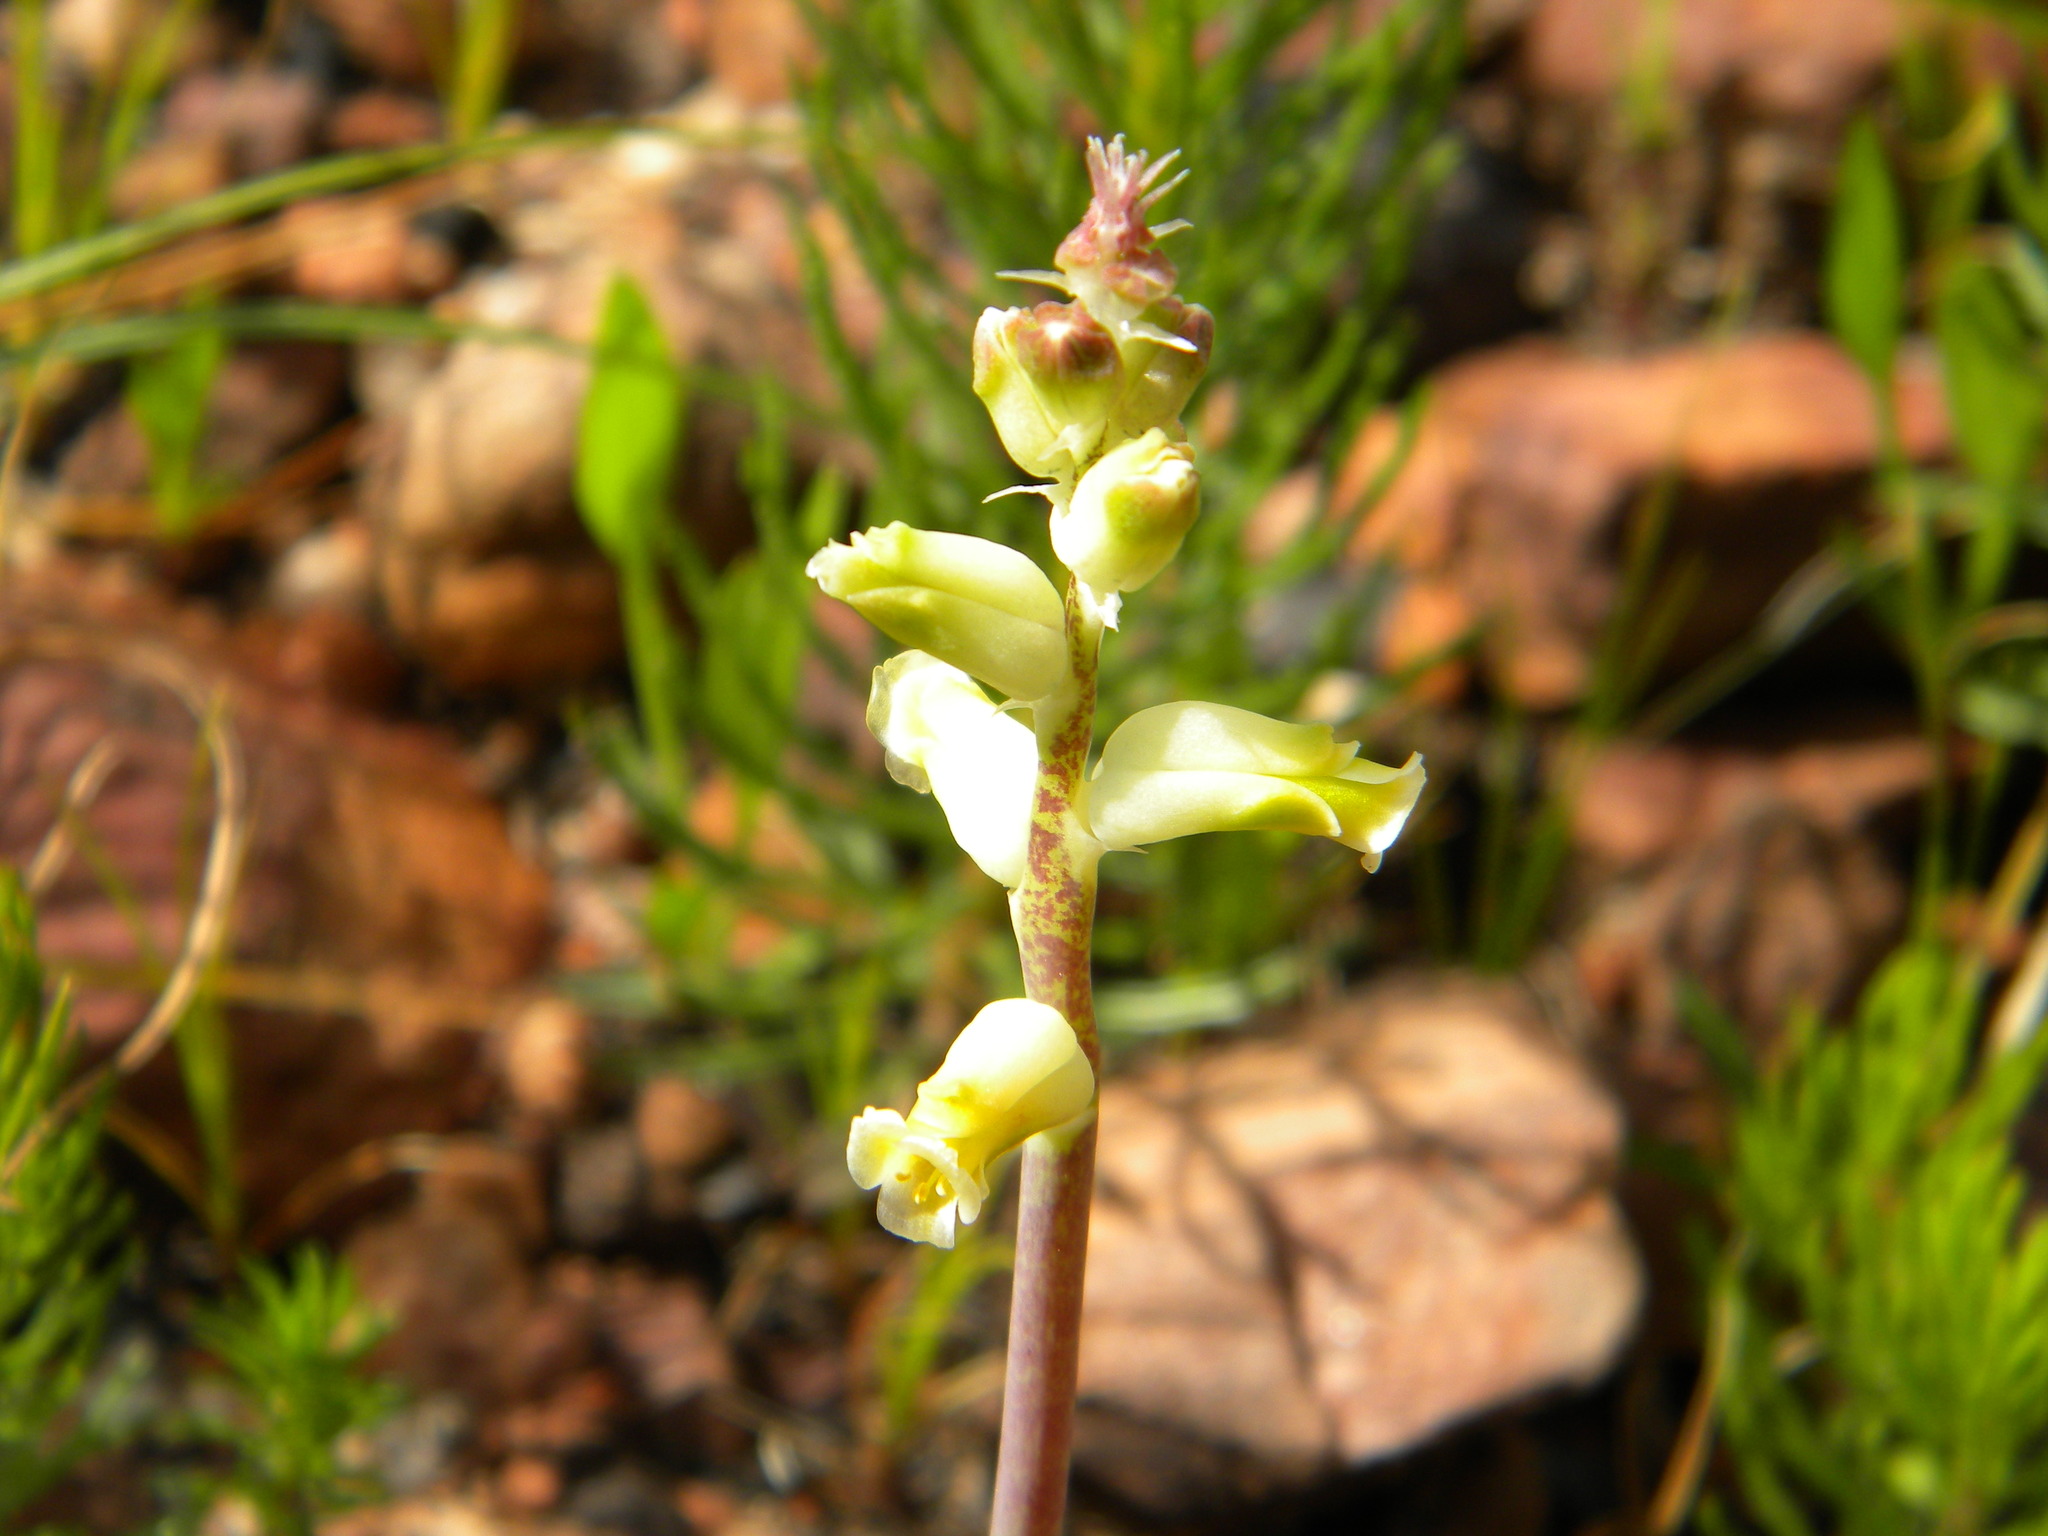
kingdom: Plantae
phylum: Tracheophyta
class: Liliopsida
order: Asparagales
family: Asparagaceae
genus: Lachenalia
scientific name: Lachenalia cernua
